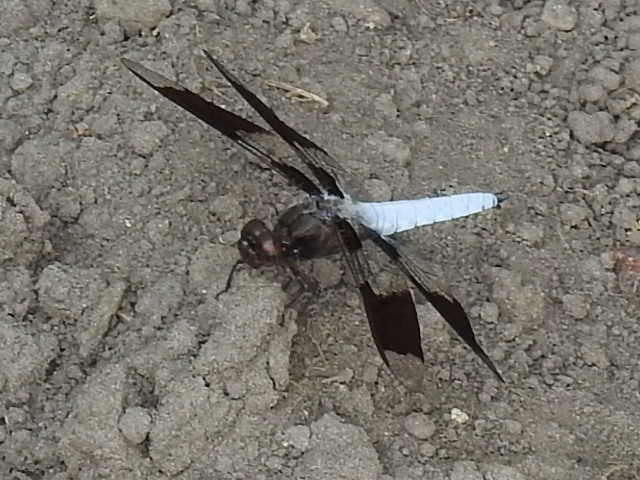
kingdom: Animalia
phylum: Arthropoda
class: Insecta
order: Odonata
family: Libellulidae
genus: Plathemis
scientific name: Plathemis lydia
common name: Common whitetail
